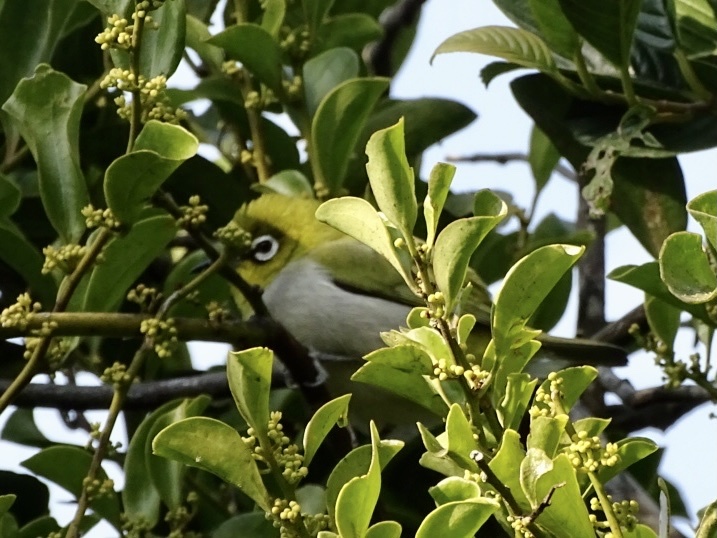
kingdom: Animalia
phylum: Chordata
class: Aves
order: Passeriformes
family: Zosteropidae
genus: Zosterops
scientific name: Zosterops simplex
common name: Swinhoe's white-eye
